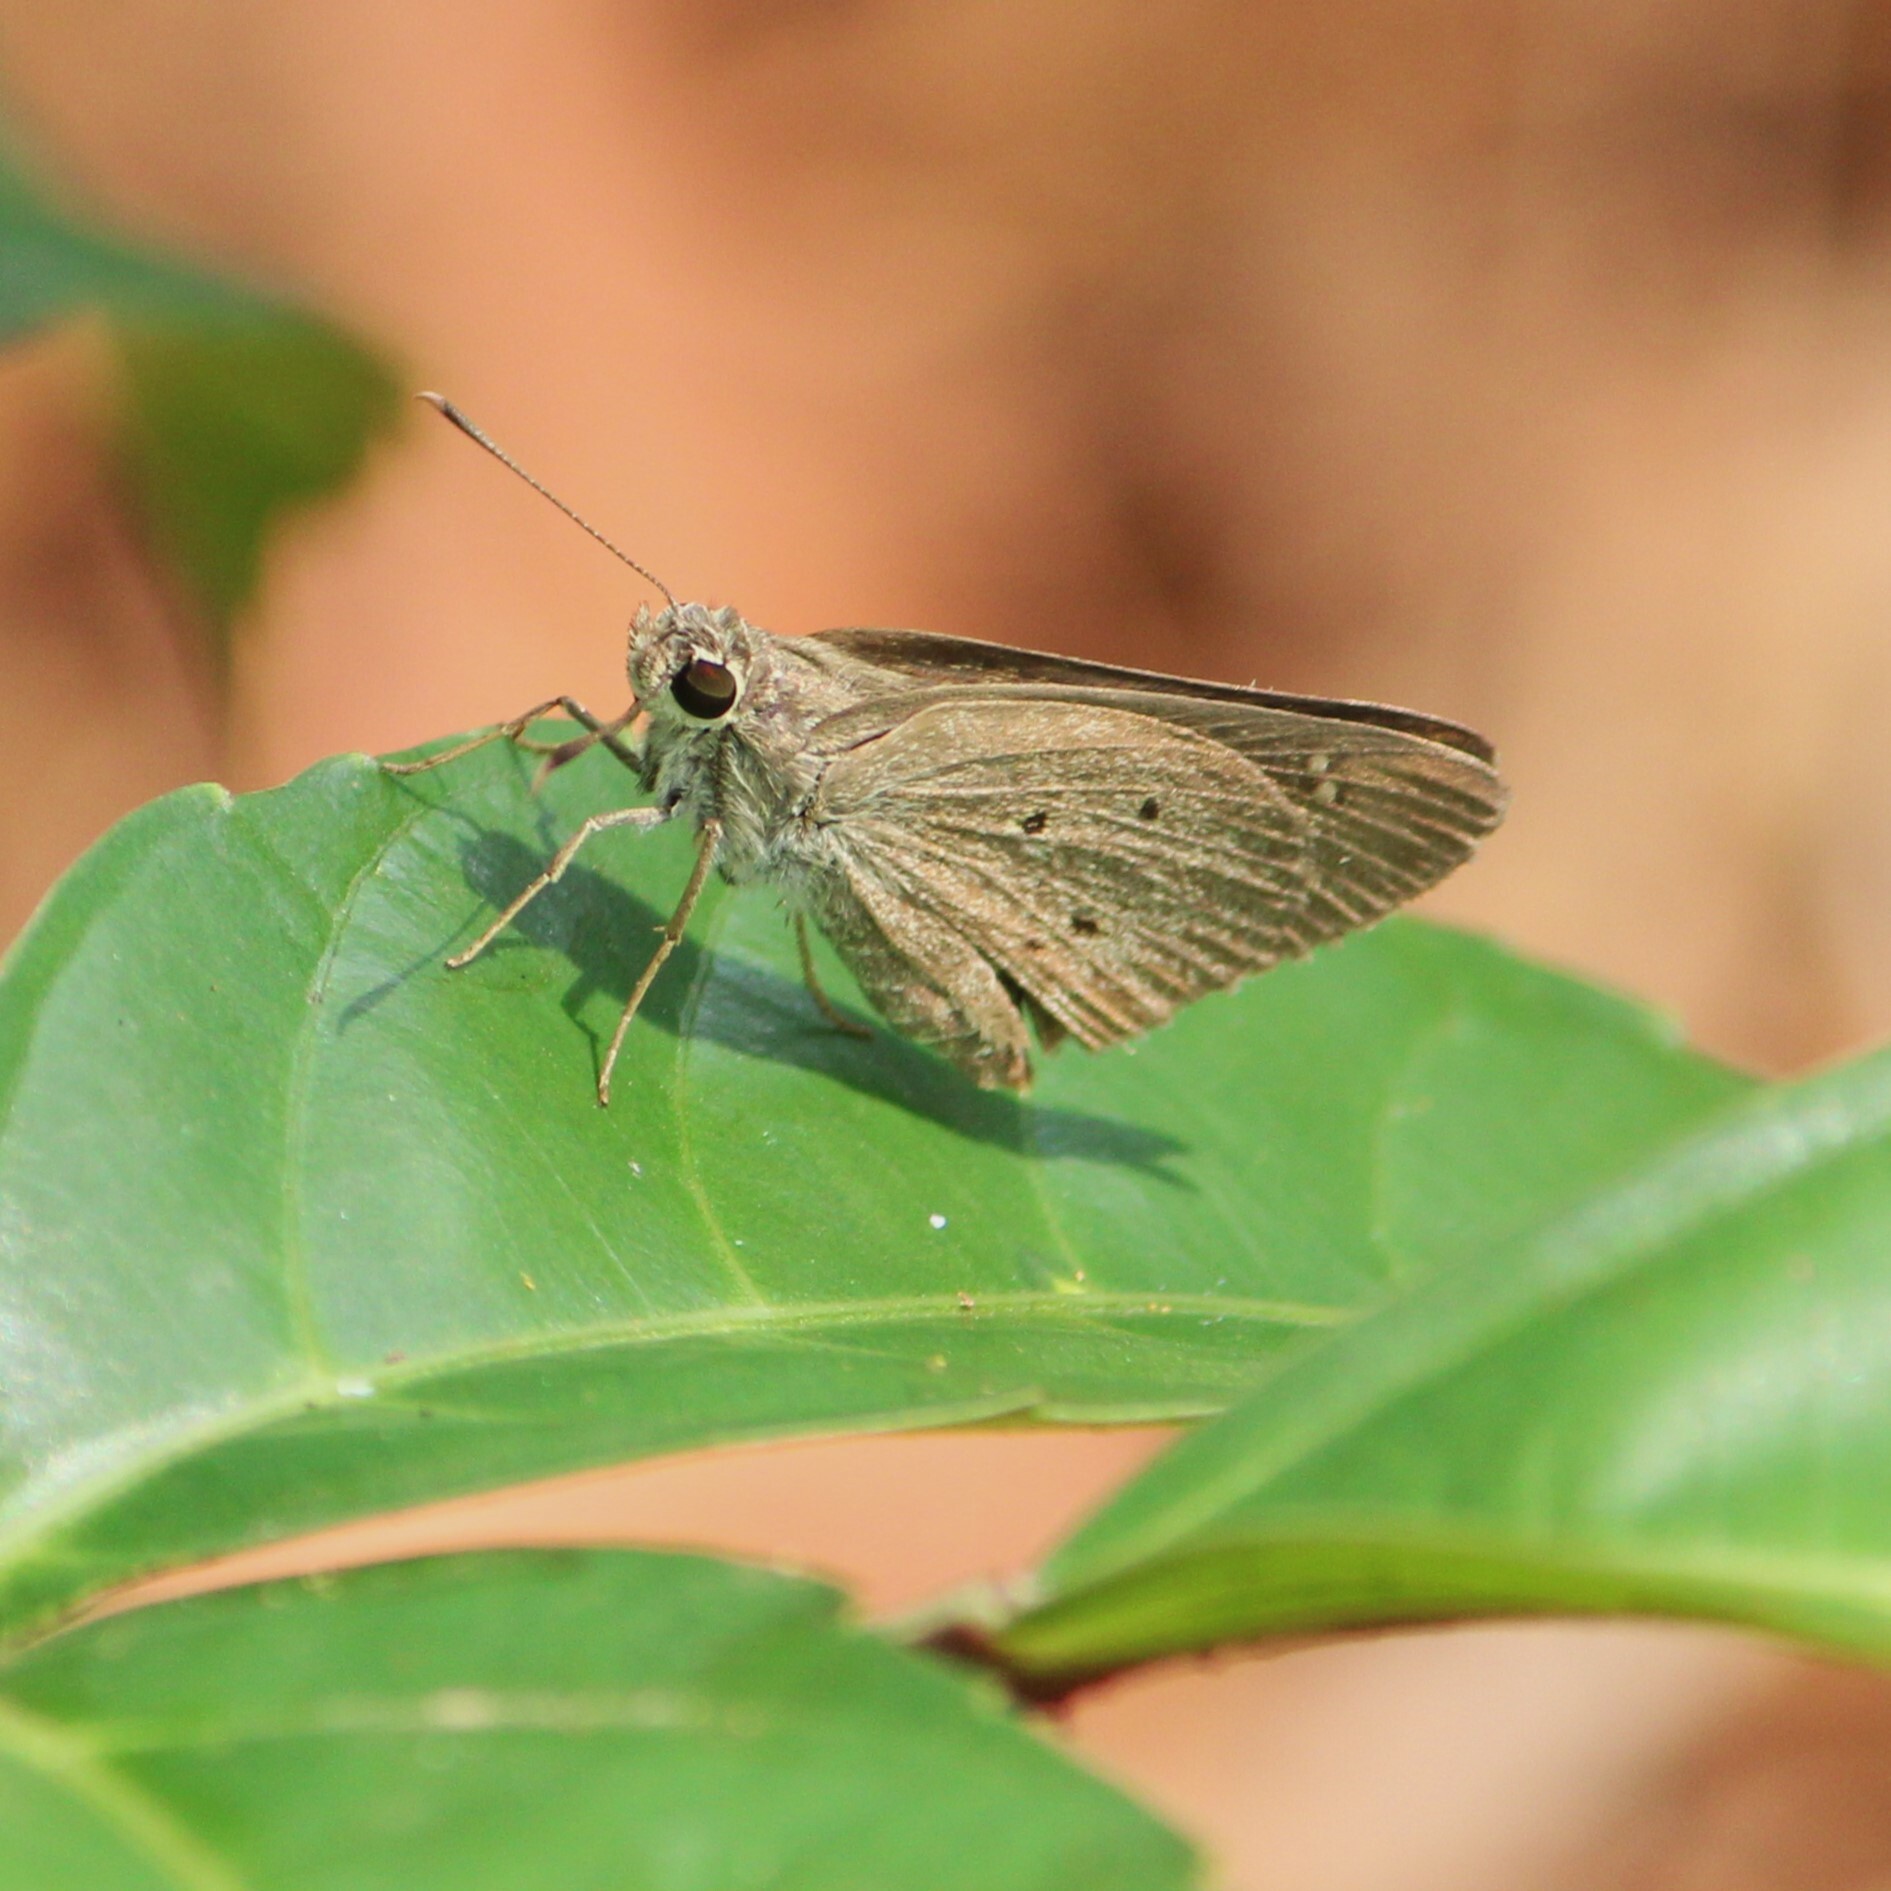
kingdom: Animalia
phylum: Arthropoda
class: Insecta
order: Lepidoptera
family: Hesperiidae
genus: Suastus
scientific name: Suastus gremius
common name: Indian palm bob
